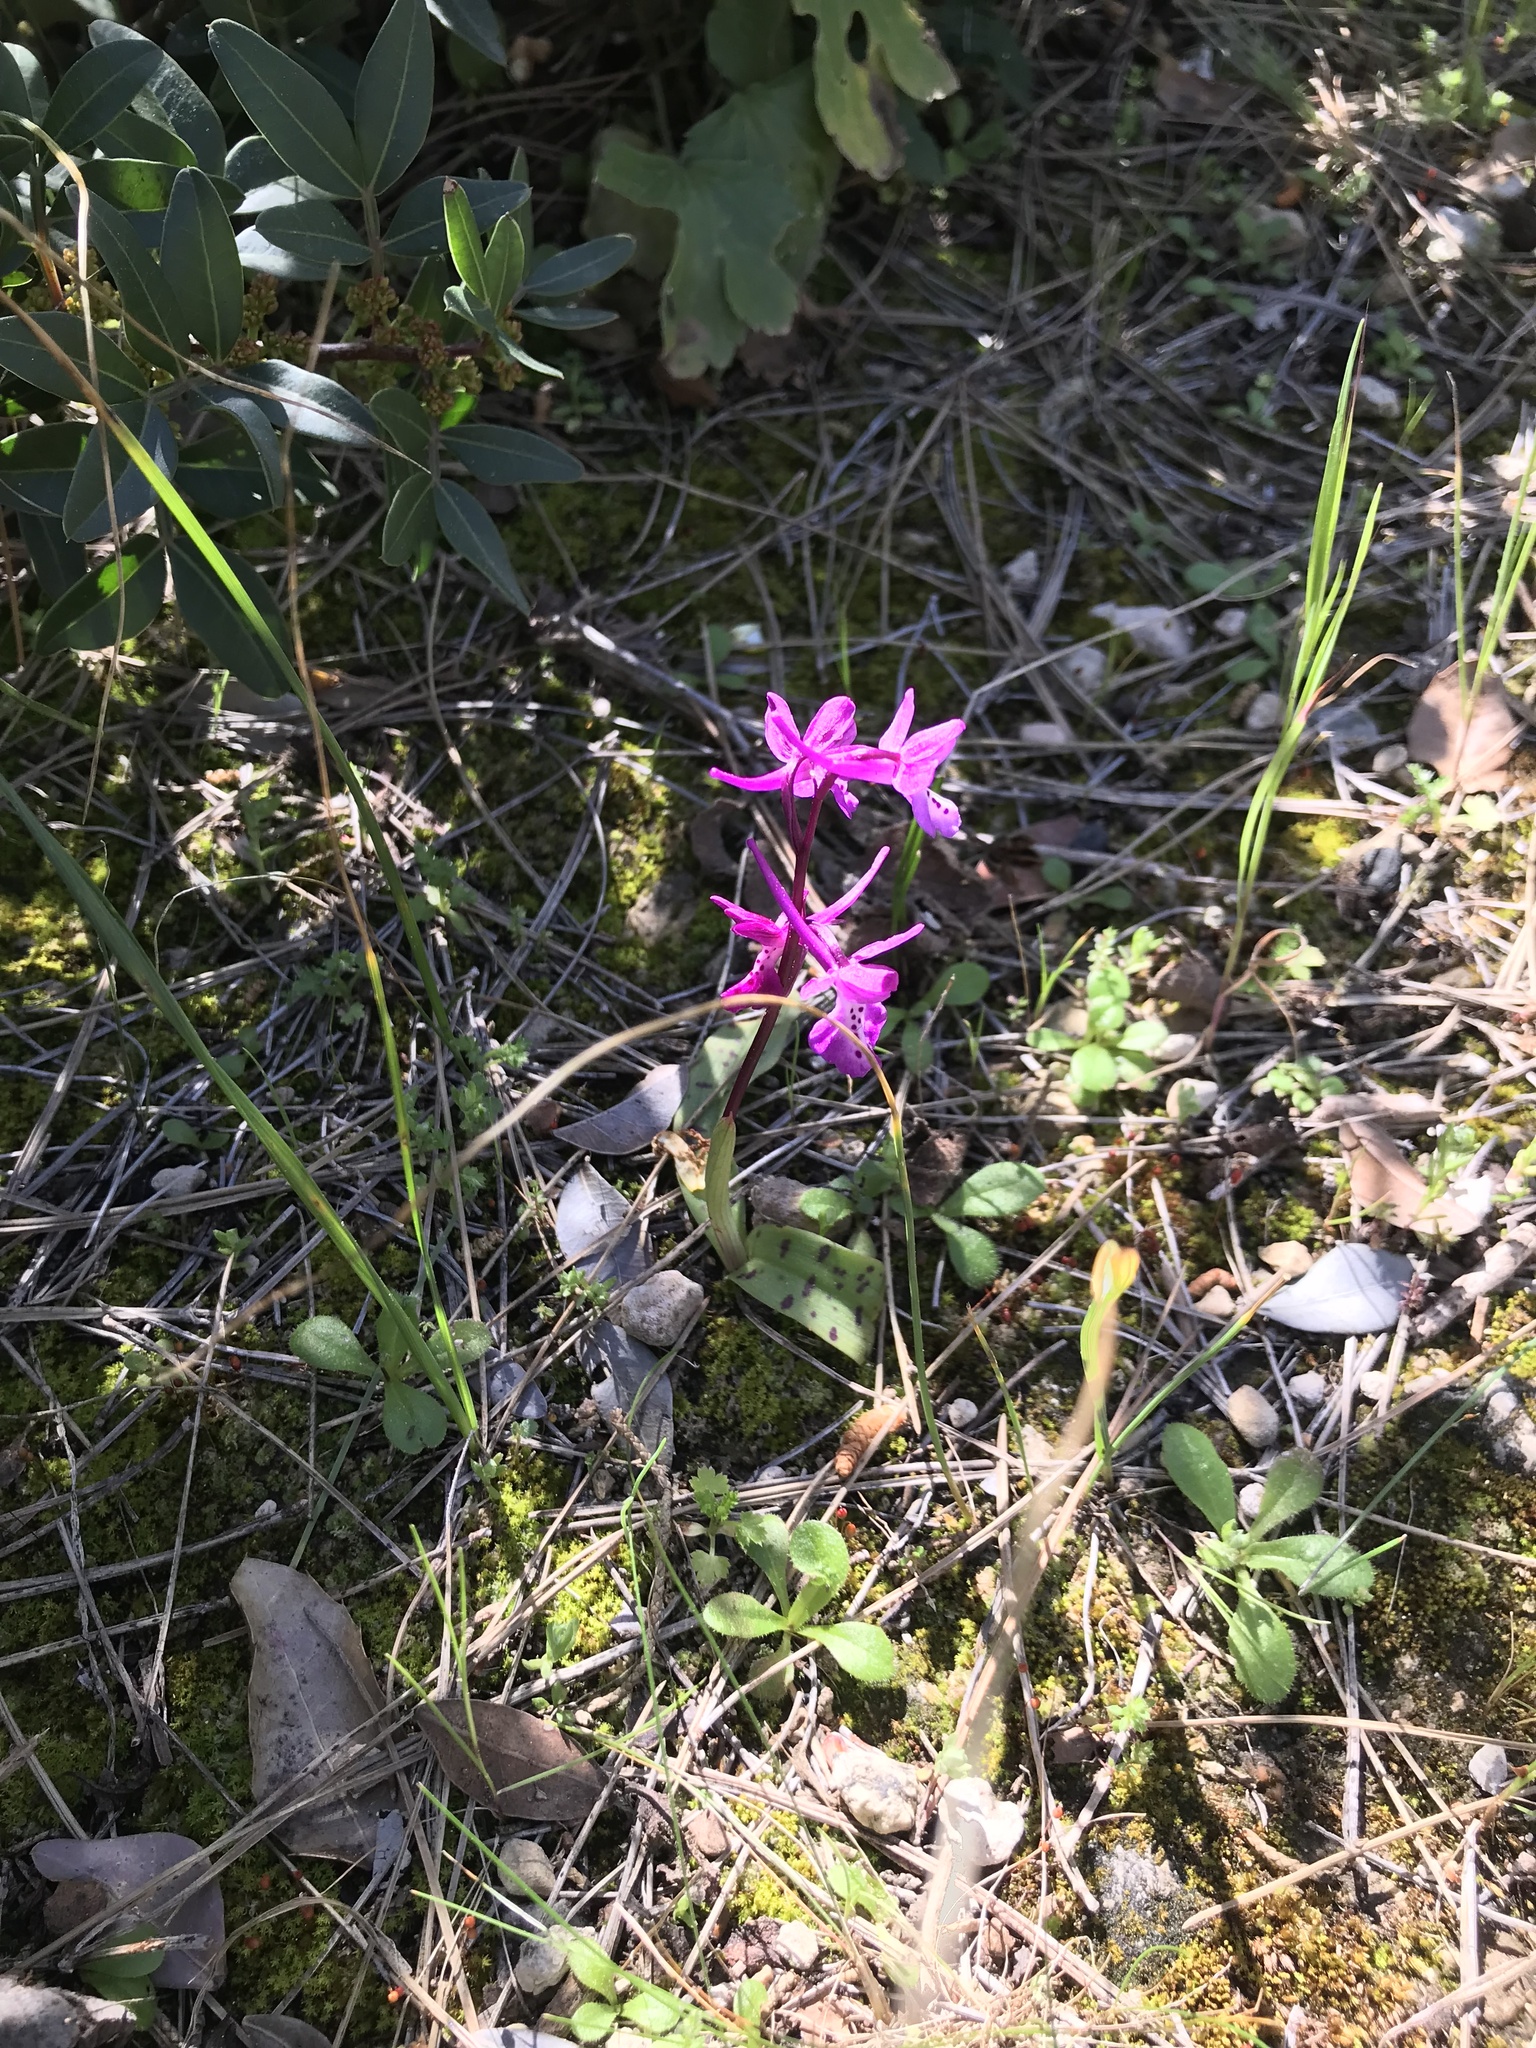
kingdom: Plantae
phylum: Tracheophyta
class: Liliopsida
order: Asparagales
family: Orchidaceae
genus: Orchis
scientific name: Orchis anatolica
